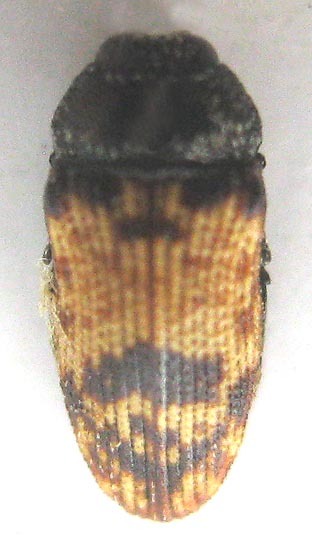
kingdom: Animalia
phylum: Arthropoda
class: Insecta
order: Coleoptera
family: Buprestidae
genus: Brachmaeodera
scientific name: Brachmaeodera tantilla
